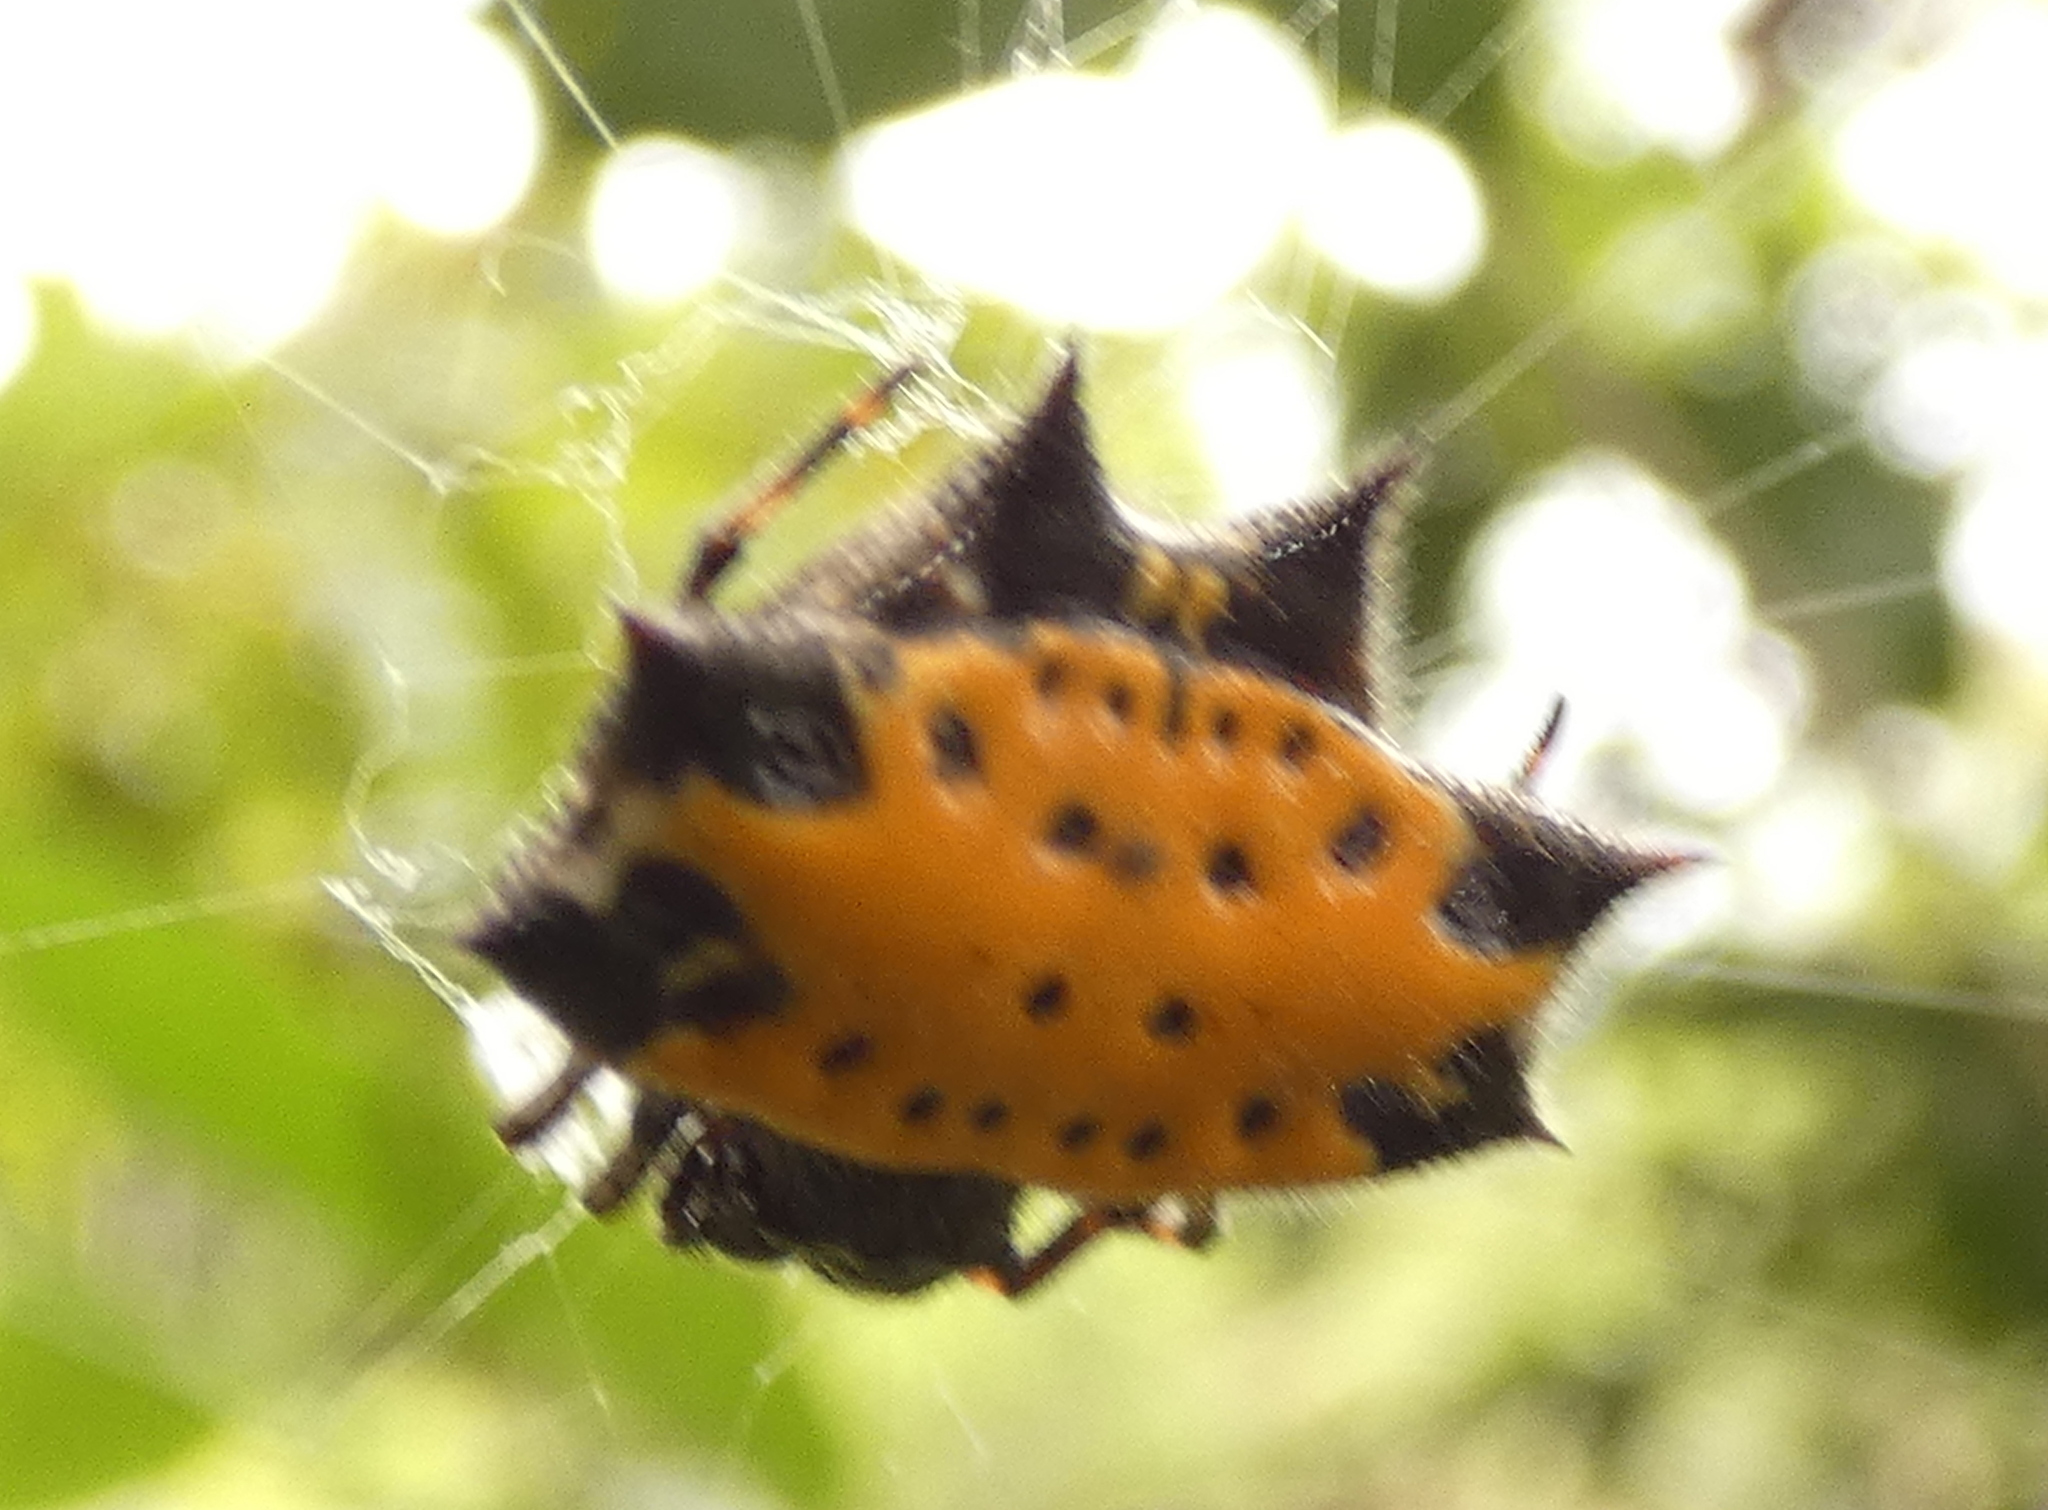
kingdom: Animalia
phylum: Arthropoda
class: Arachnida
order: Araneae
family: Araneidae
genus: Gasteracantha
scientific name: Gasteracantha cancriformis
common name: Orb weavers
